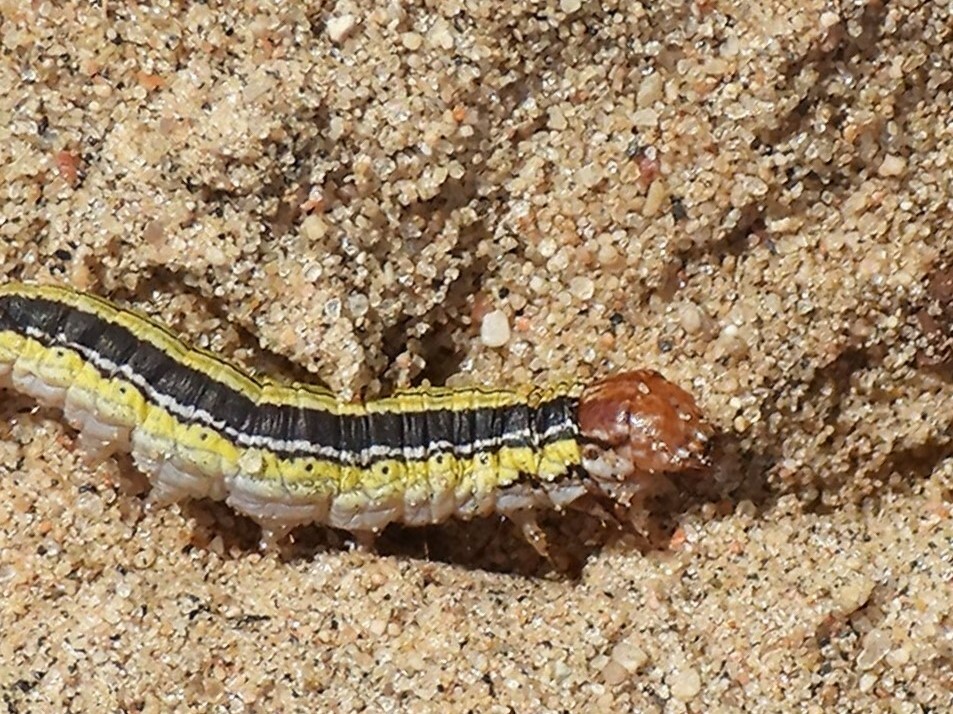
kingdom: Animalia
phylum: Arthropoda
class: Insecta
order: Lepidoptera
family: Pyralidae
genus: Macalla
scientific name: Macalla zelleri
